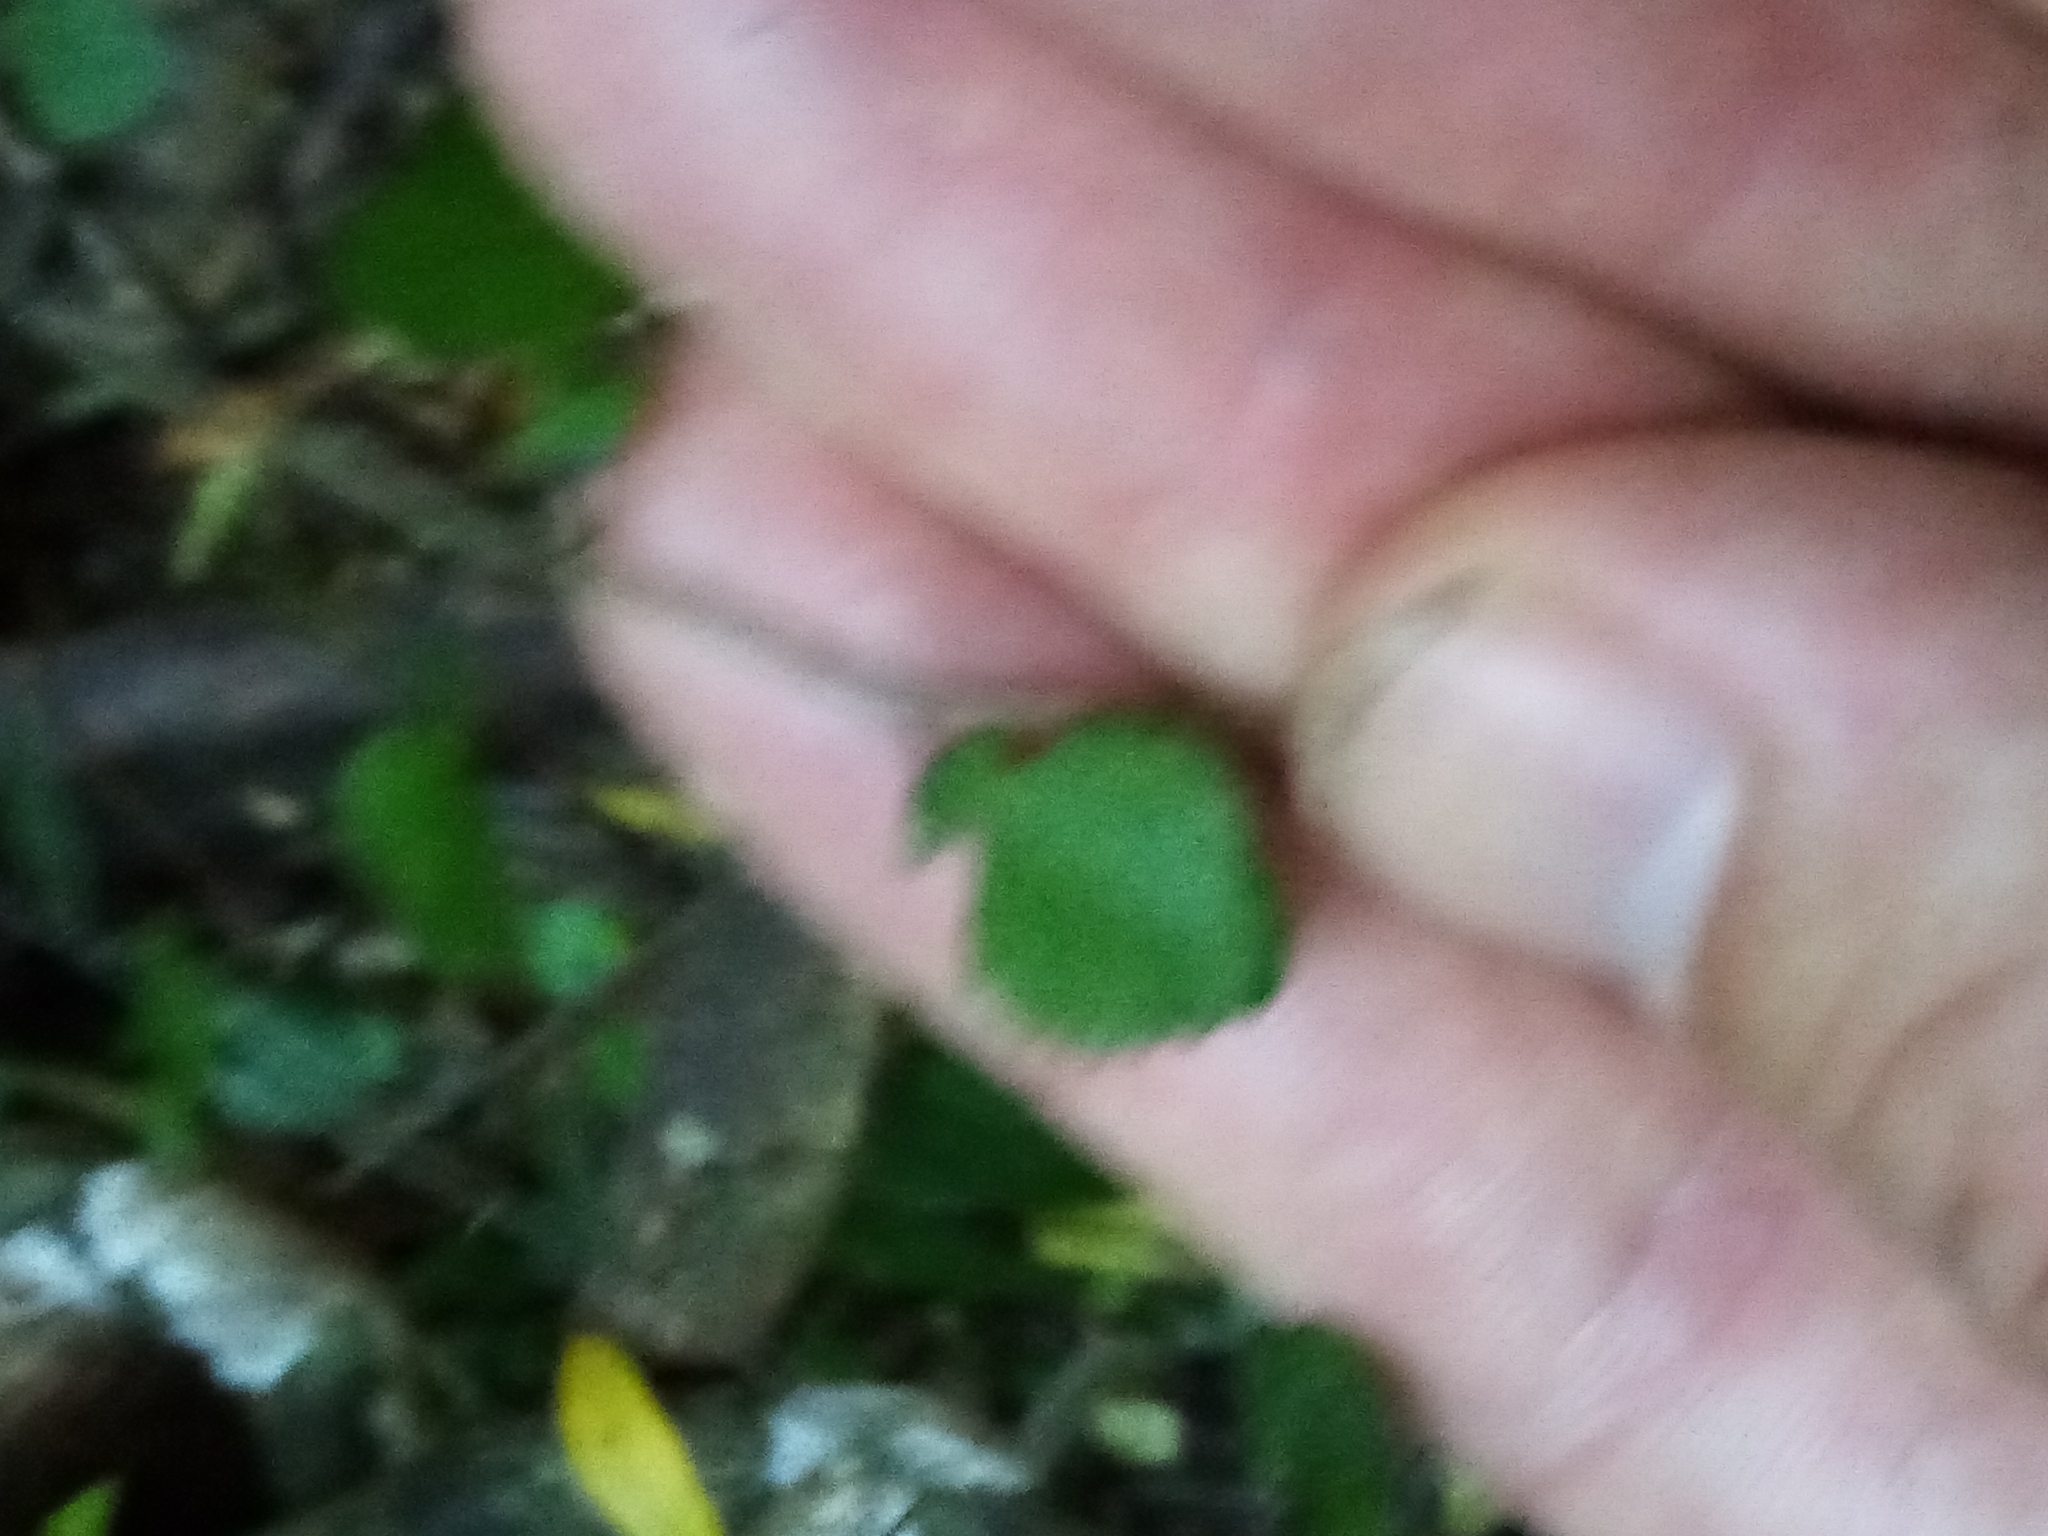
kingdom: Plantae
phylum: Tracheophyta
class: Magnoliopsida
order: Rosales
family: Moraceae
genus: Paratrophis
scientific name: Paratrophis microphylla
